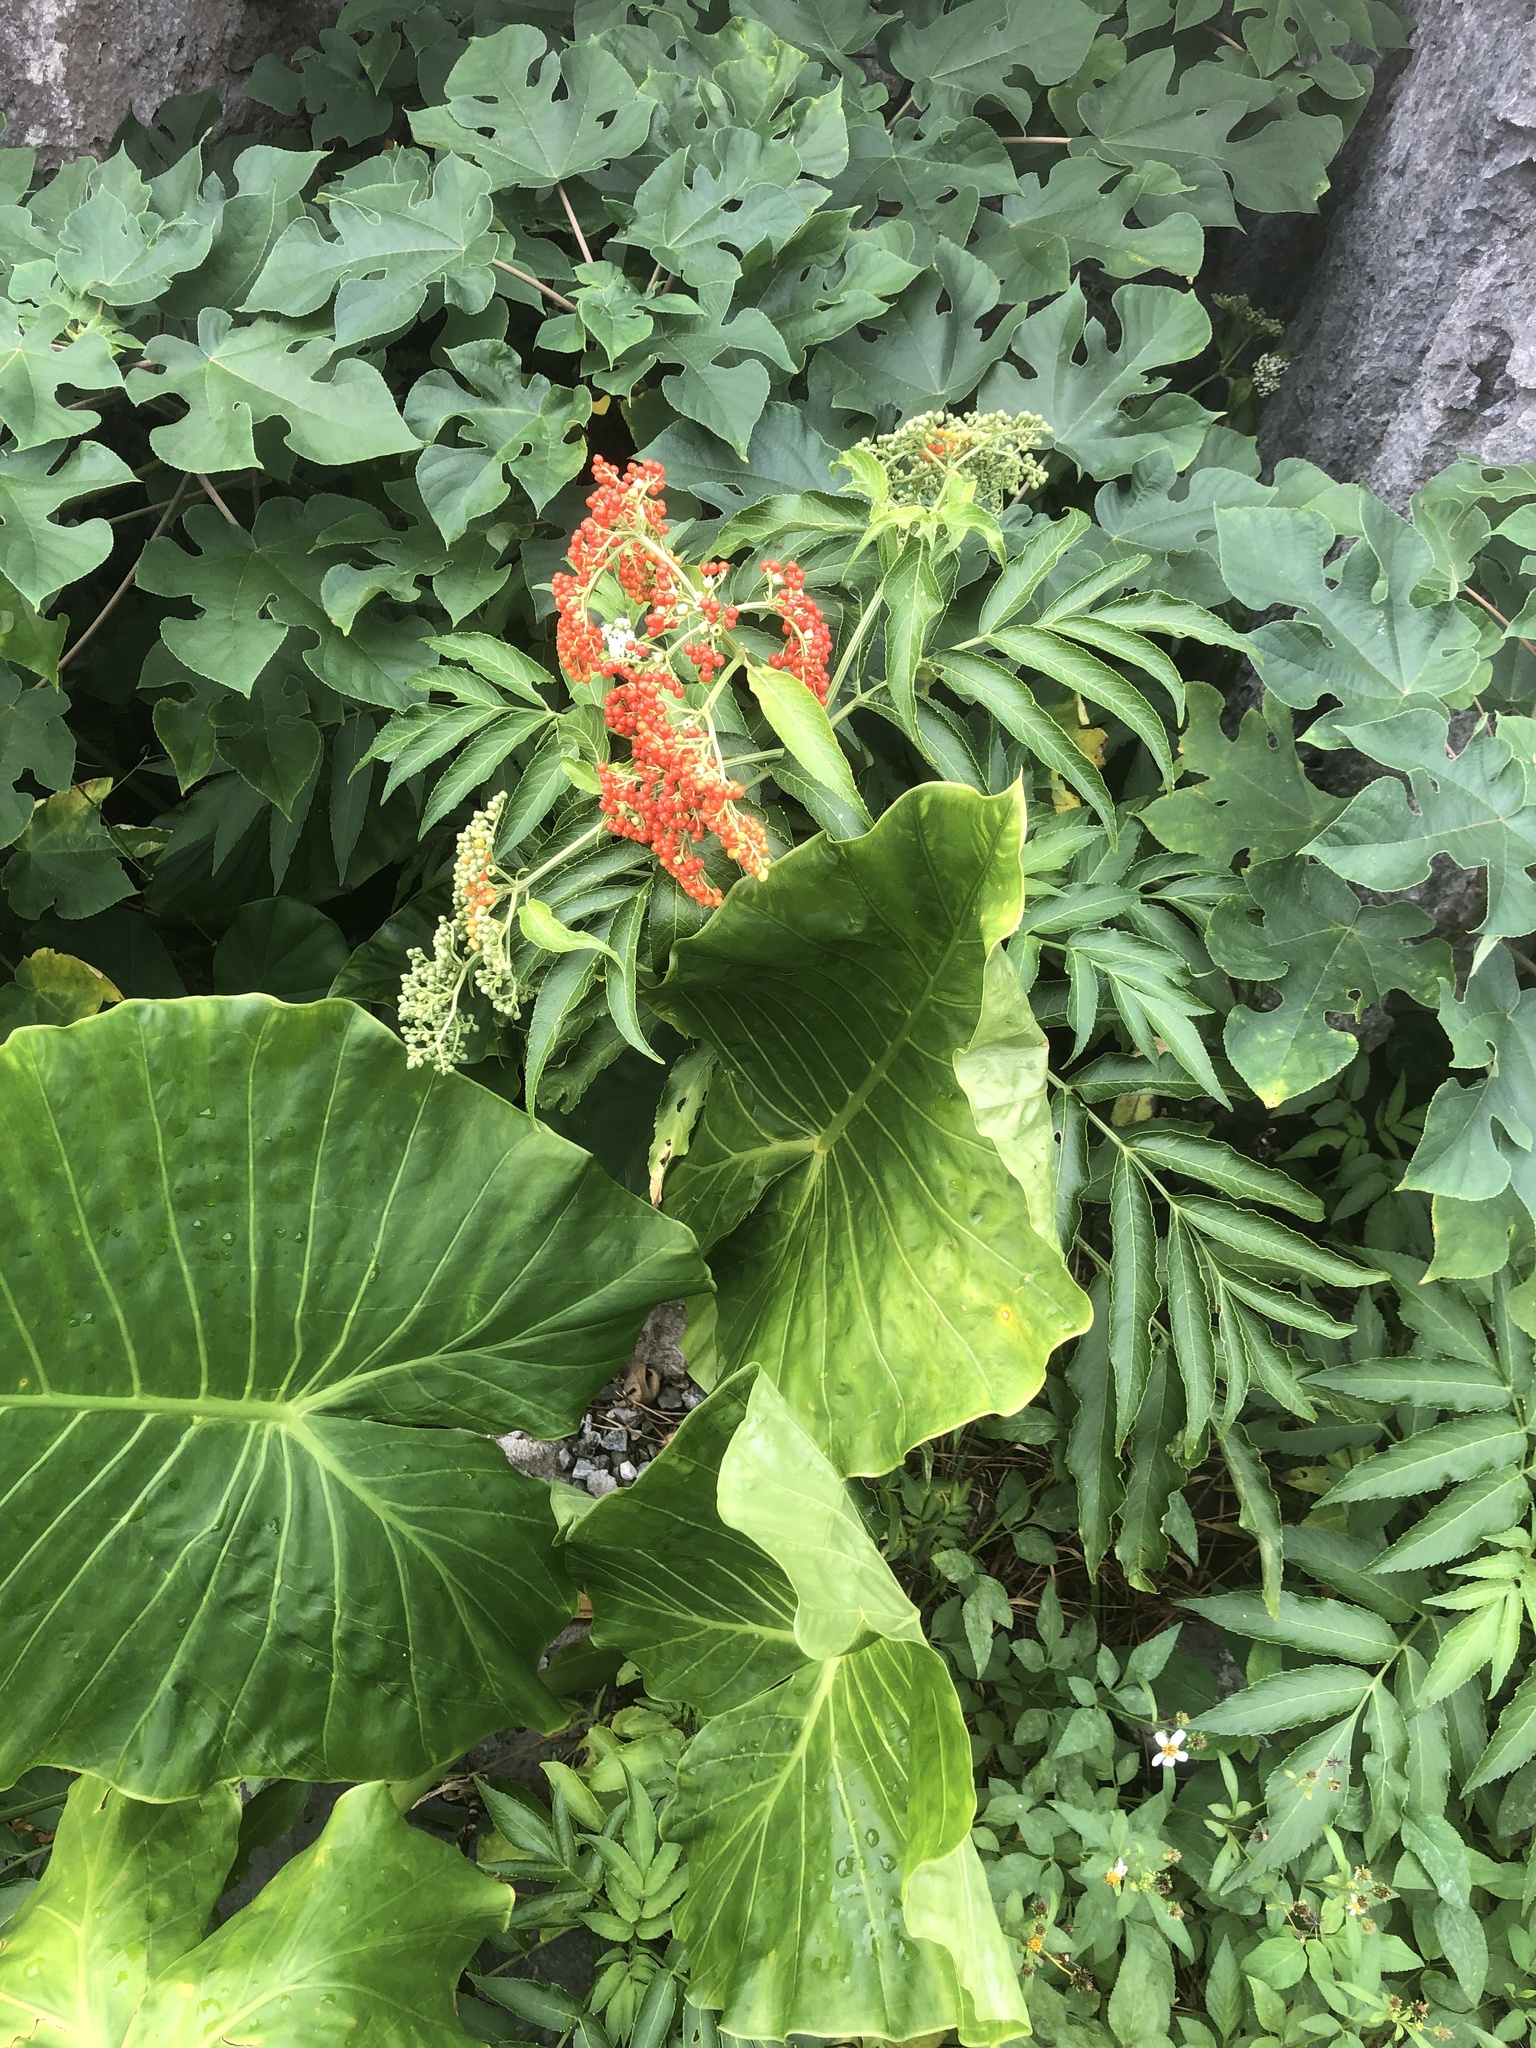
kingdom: Plantae
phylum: Tracheophyta
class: Magnoliopsida
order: Dipsacales
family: Viburnaceae
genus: Sambucus
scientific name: Sambucus javanica
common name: Chinese elder
